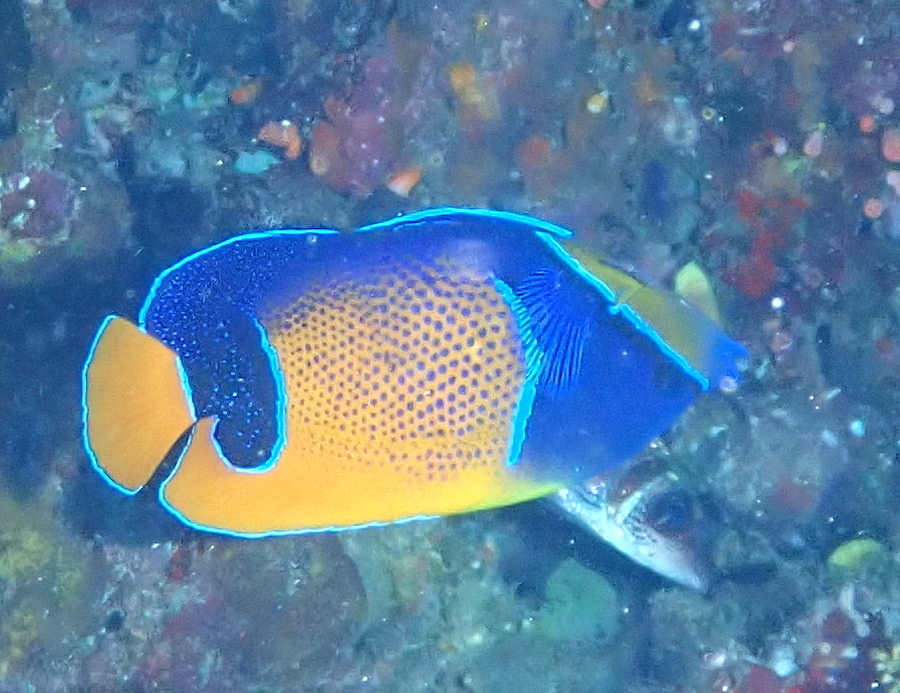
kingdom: Animalia
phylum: Chordata
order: Perciformes
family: Pomacanthidae
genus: Pomacanthus
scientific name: Pomacanthus navarchus
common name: Blue-girdled angelfish
